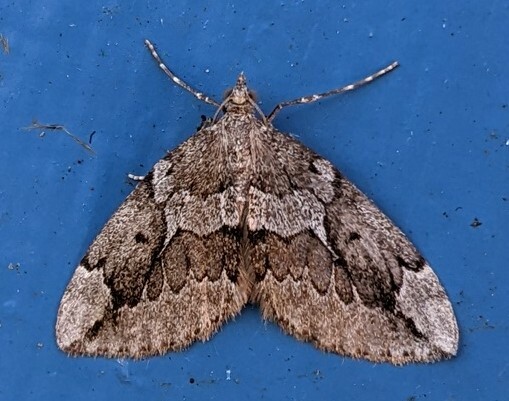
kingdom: Animalia
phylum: Arthropoda
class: Insecta
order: Lepidoptera
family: Geometridae
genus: Thera
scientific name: Thera juniperata
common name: Juniper carpet
